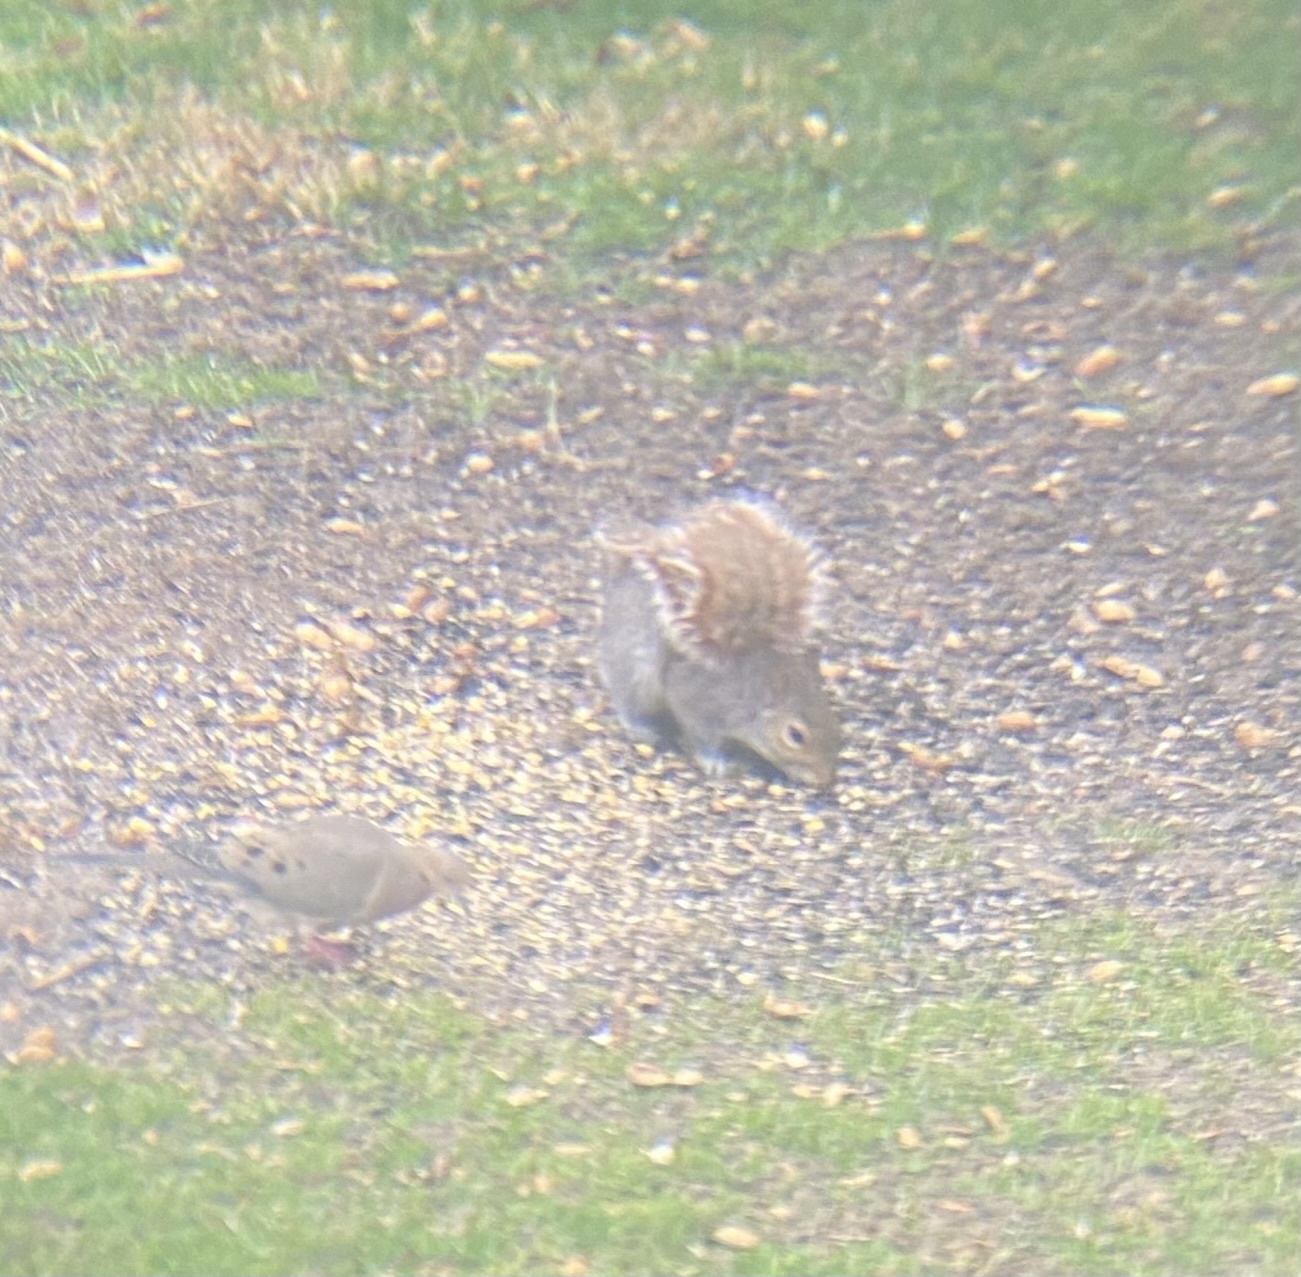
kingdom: Animalia
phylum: Chordata
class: Mammalia
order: Rodentia
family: Sciuridae
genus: Sciurus
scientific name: Sciurus carolinensis
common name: Eastern gray squirrel
